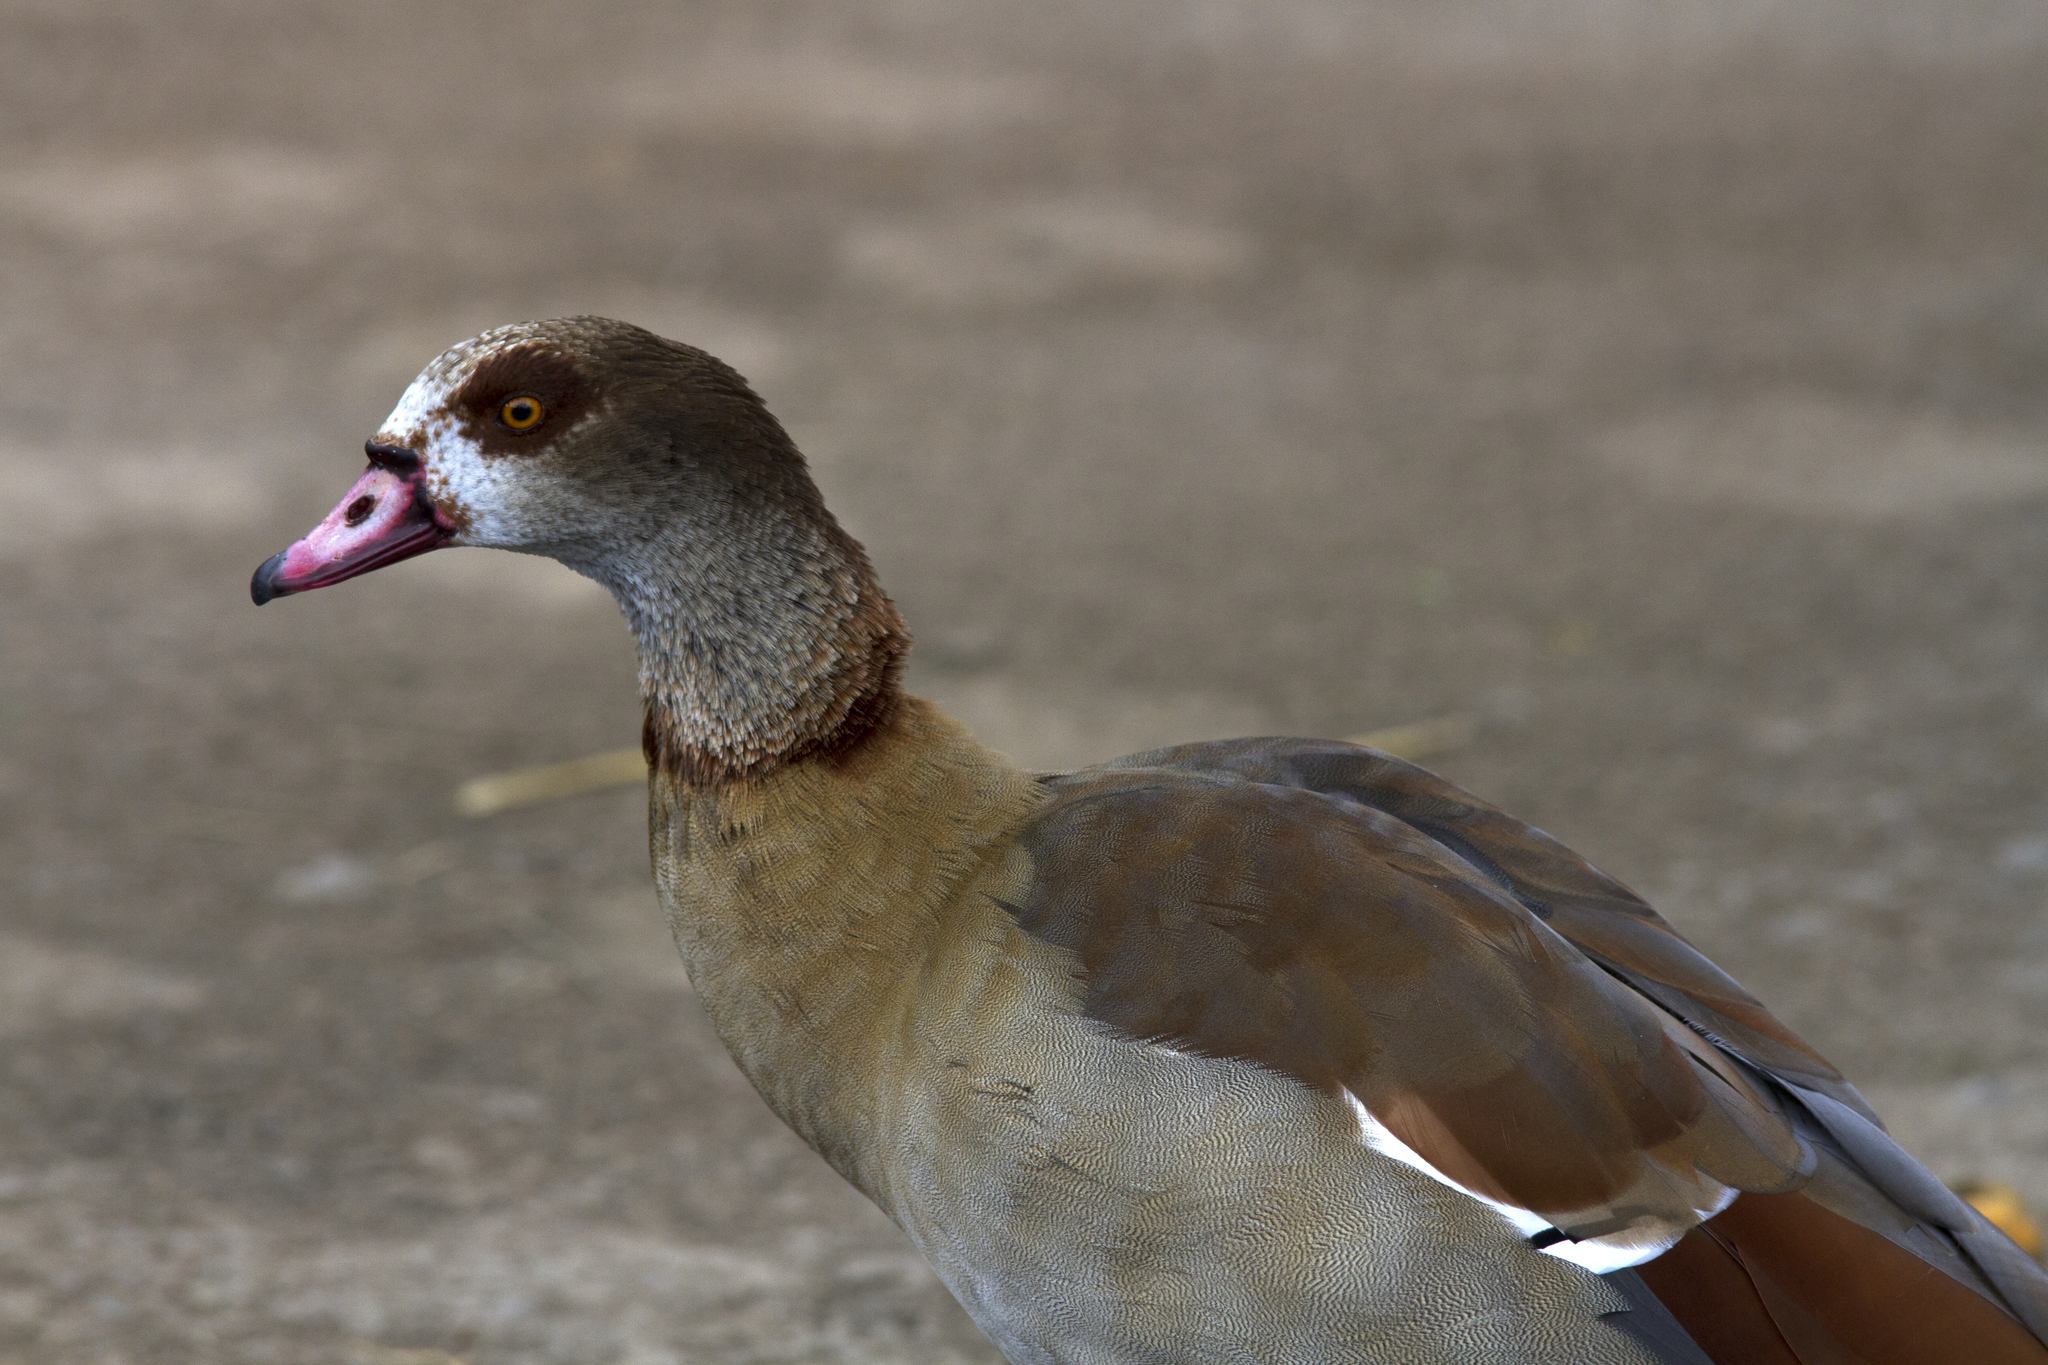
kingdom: Animalia
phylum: Chordata
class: Aves
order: Anseriformes
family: Anatidae
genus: Alopochen
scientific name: Alopochen aegyptiaca
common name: Egyptian goose
